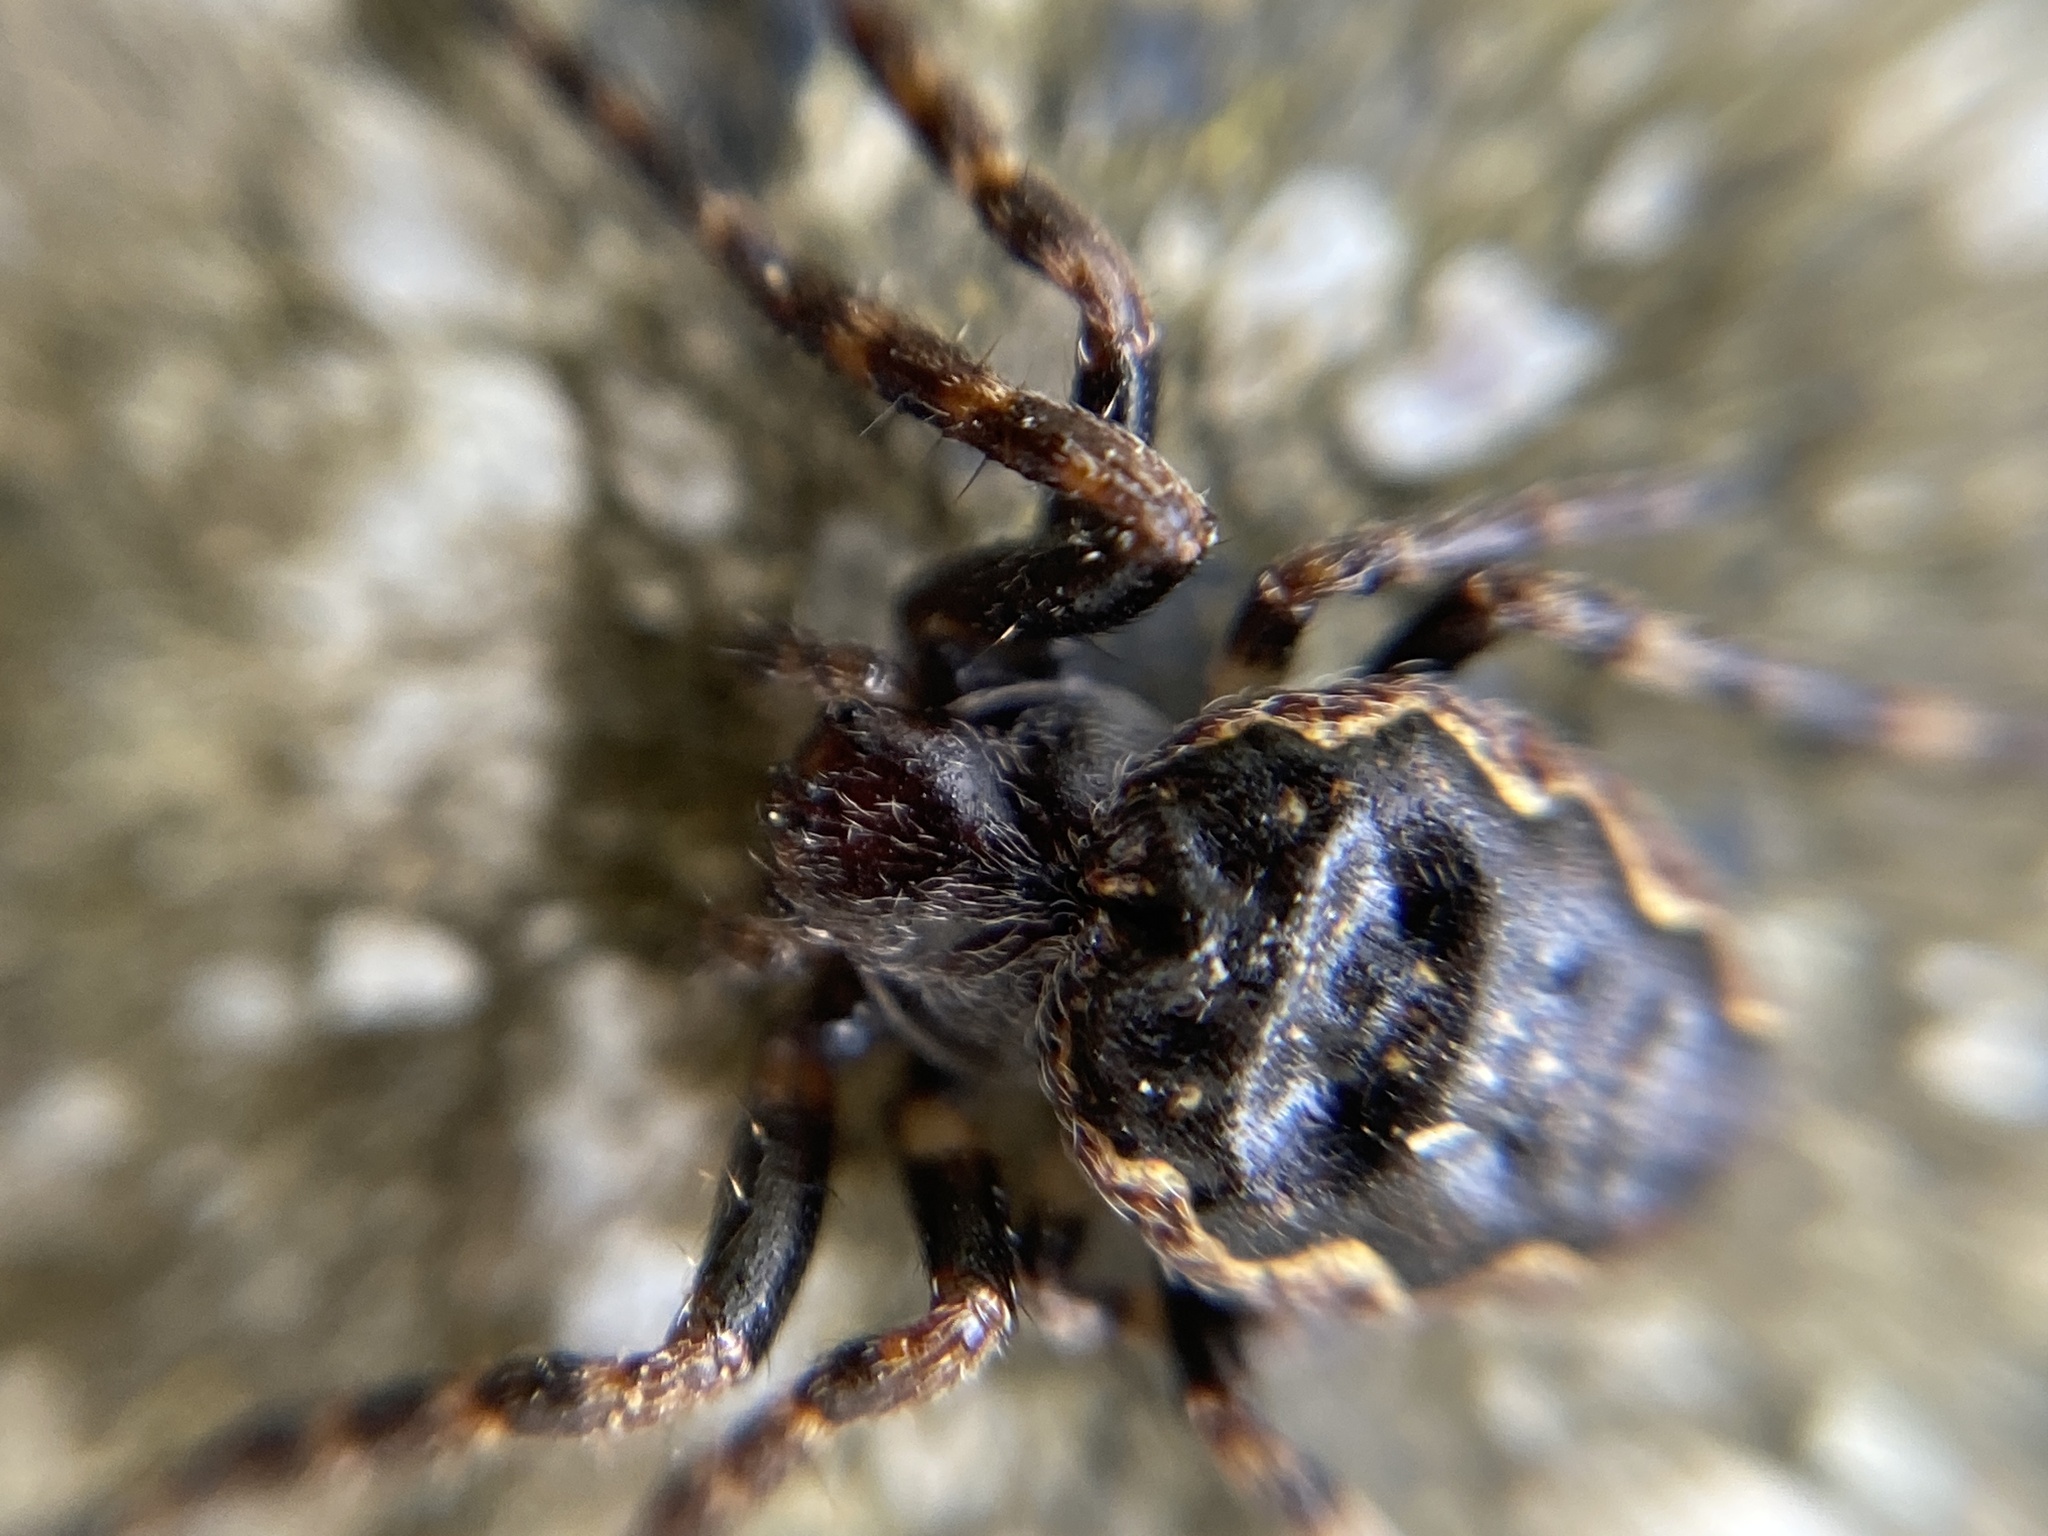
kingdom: Animalia
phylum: Arthropoda
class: Arachnida
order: Araneae
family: Araneidae
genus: Nuctenea
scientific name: Nuctenea umbratica
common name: Toad spider
